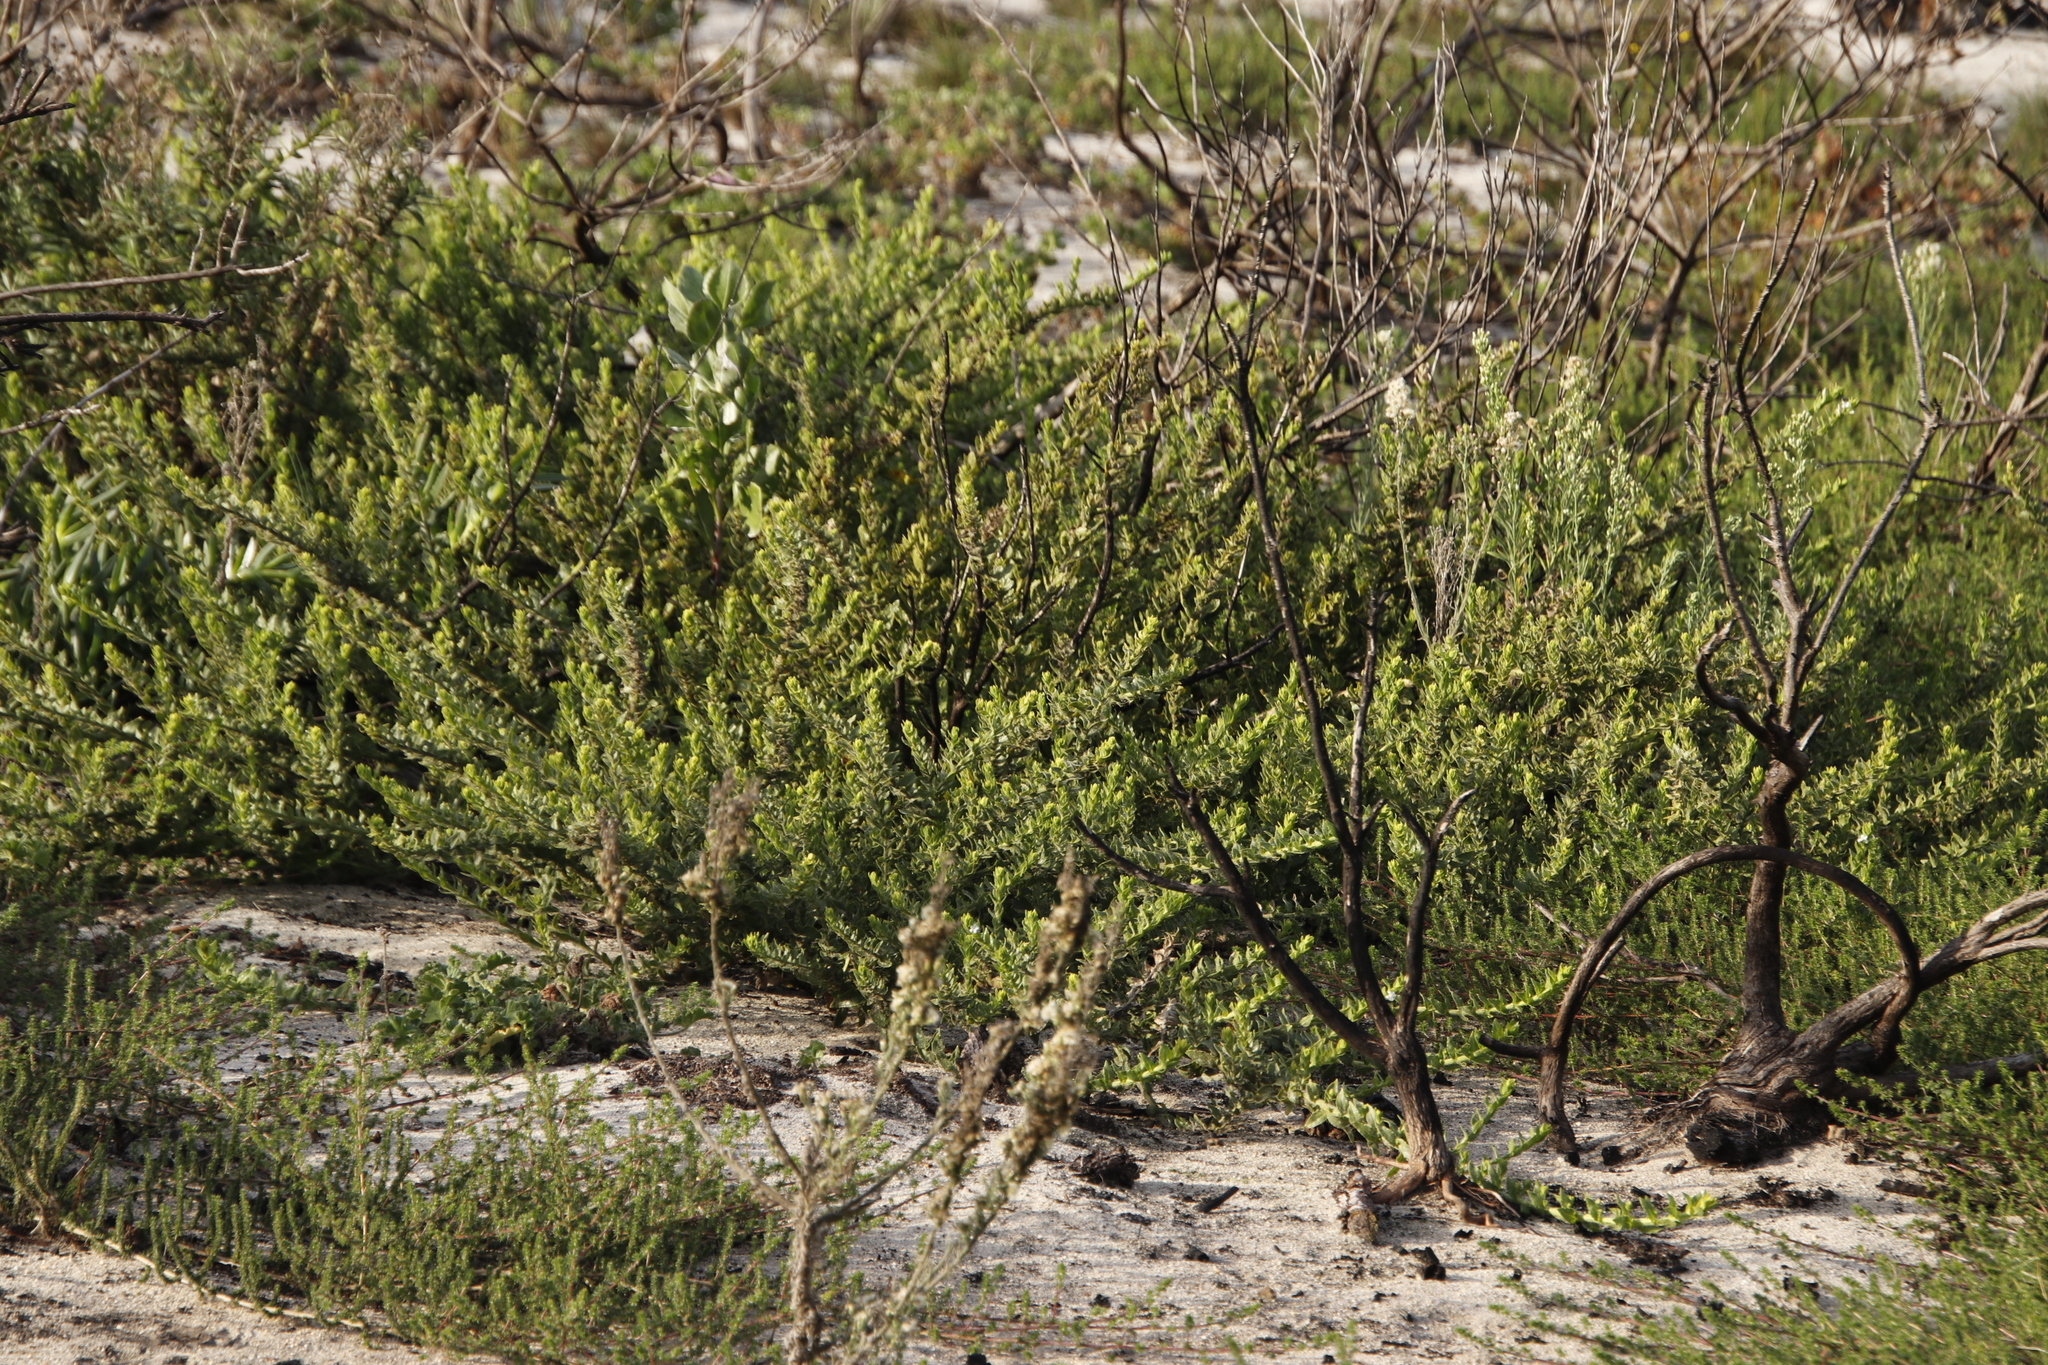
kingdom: Plantae
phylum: Tracheophyta
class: Magnoliopsida
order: Lamiales
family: Scrophulariaceae
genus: Oftia
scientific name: Oftia africana
